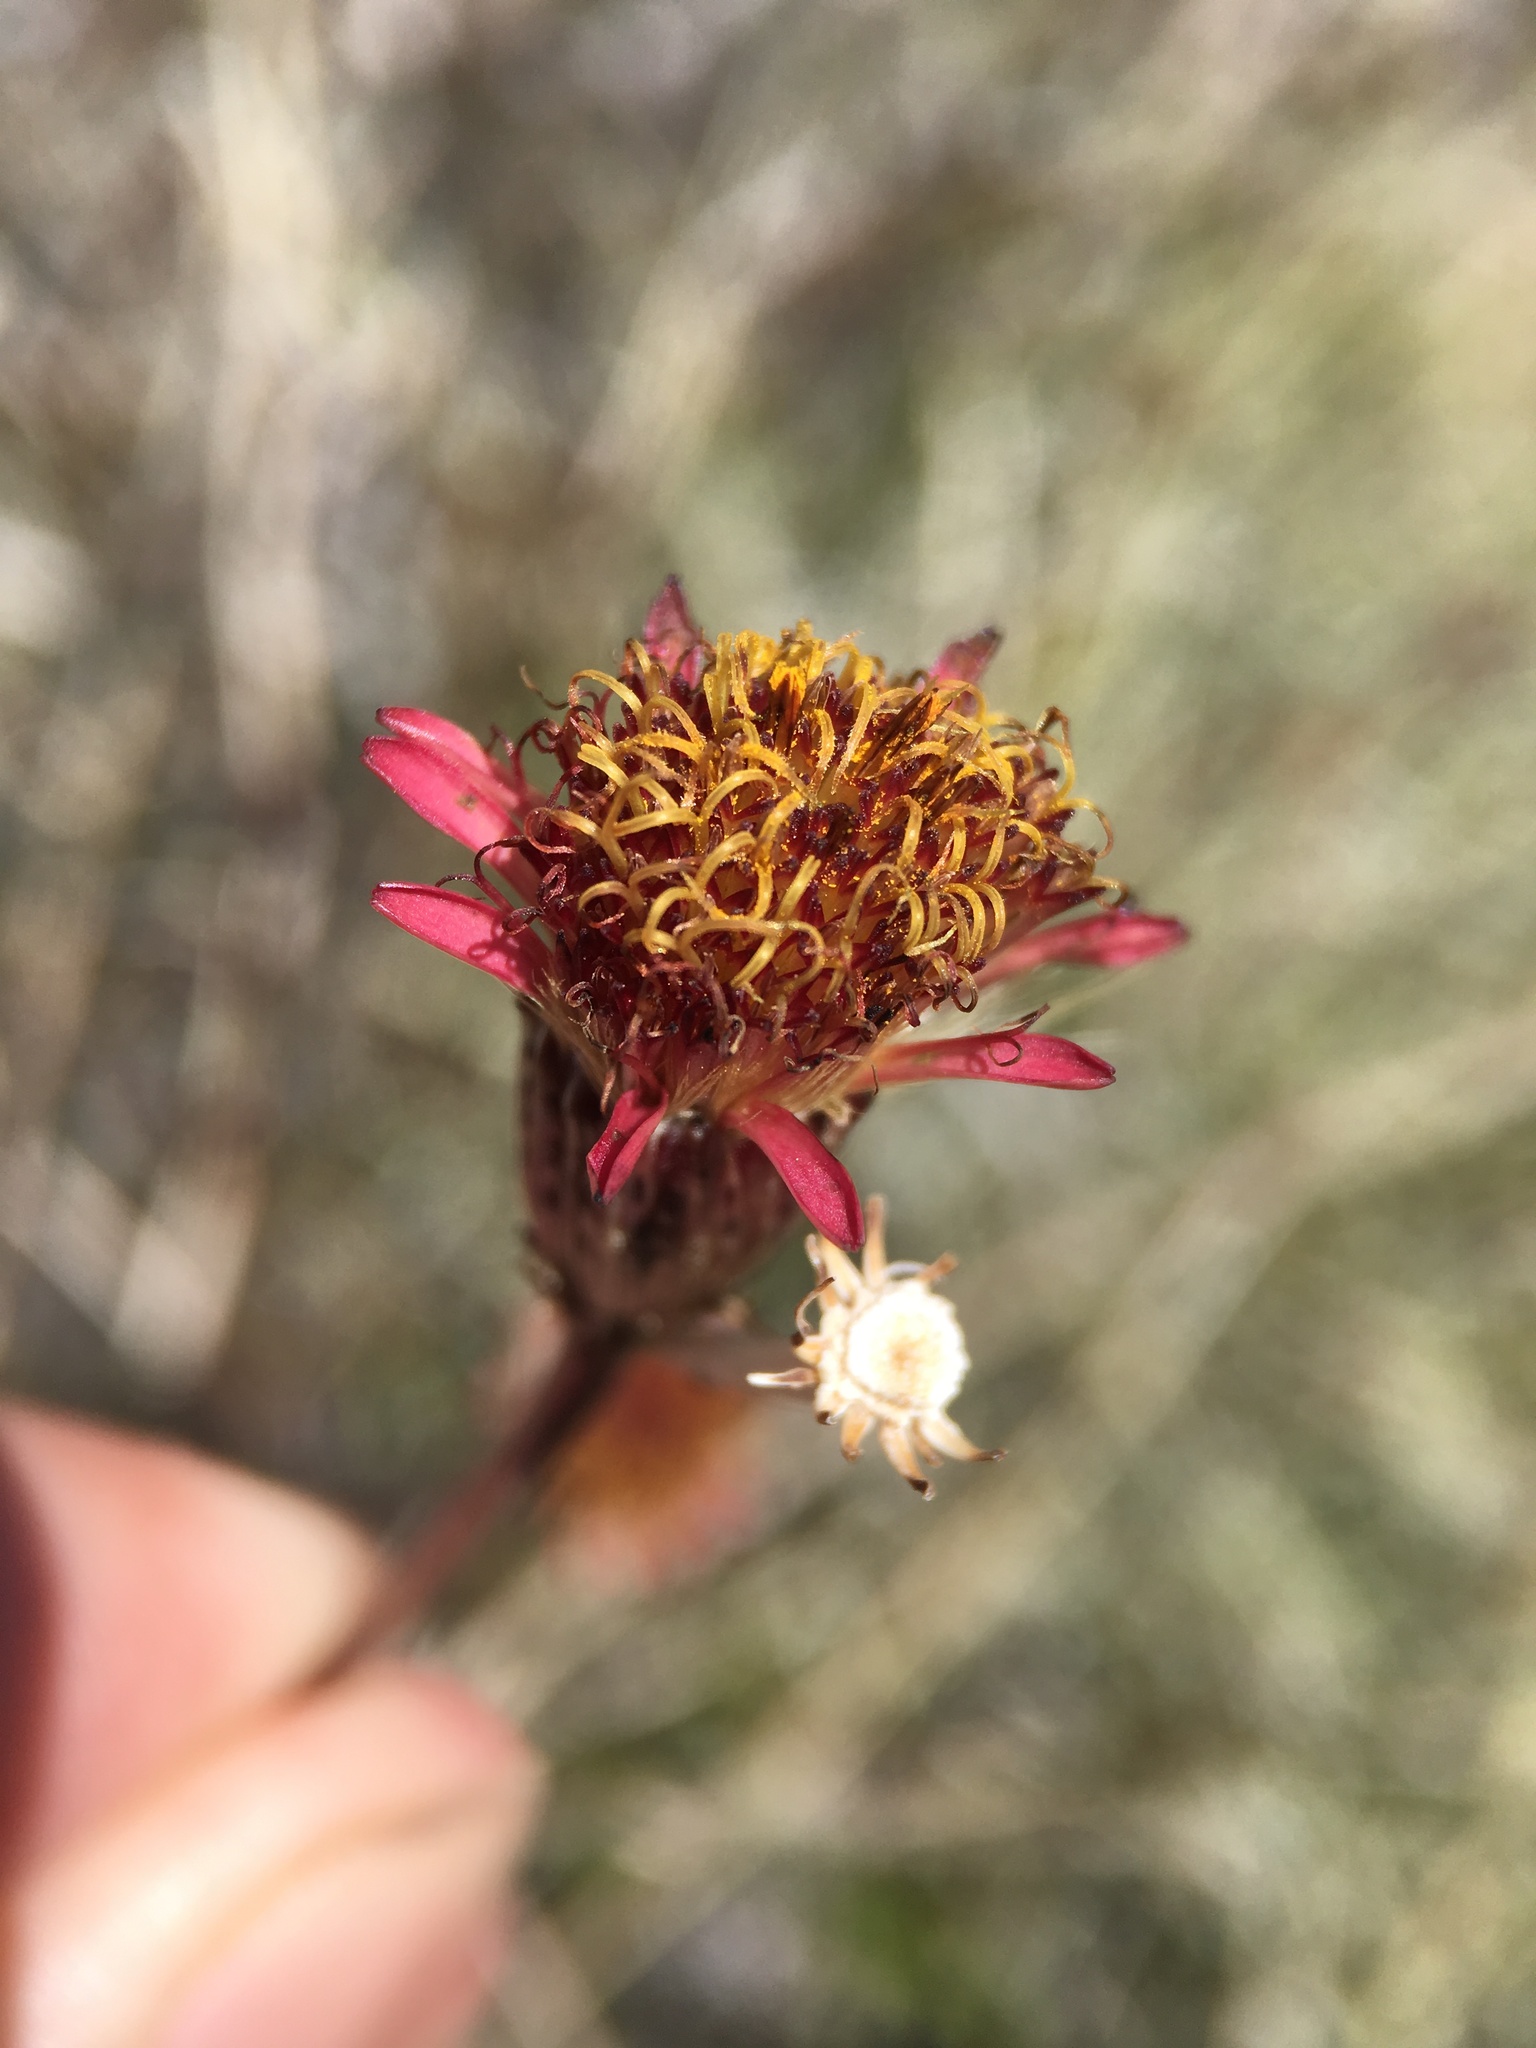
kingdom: Plantae
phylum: Tracheophyta
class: Magnoliopsida
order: Asterales
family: Asteraceae
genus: Adenophyllum
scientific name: Adenophyllum porophylloides
